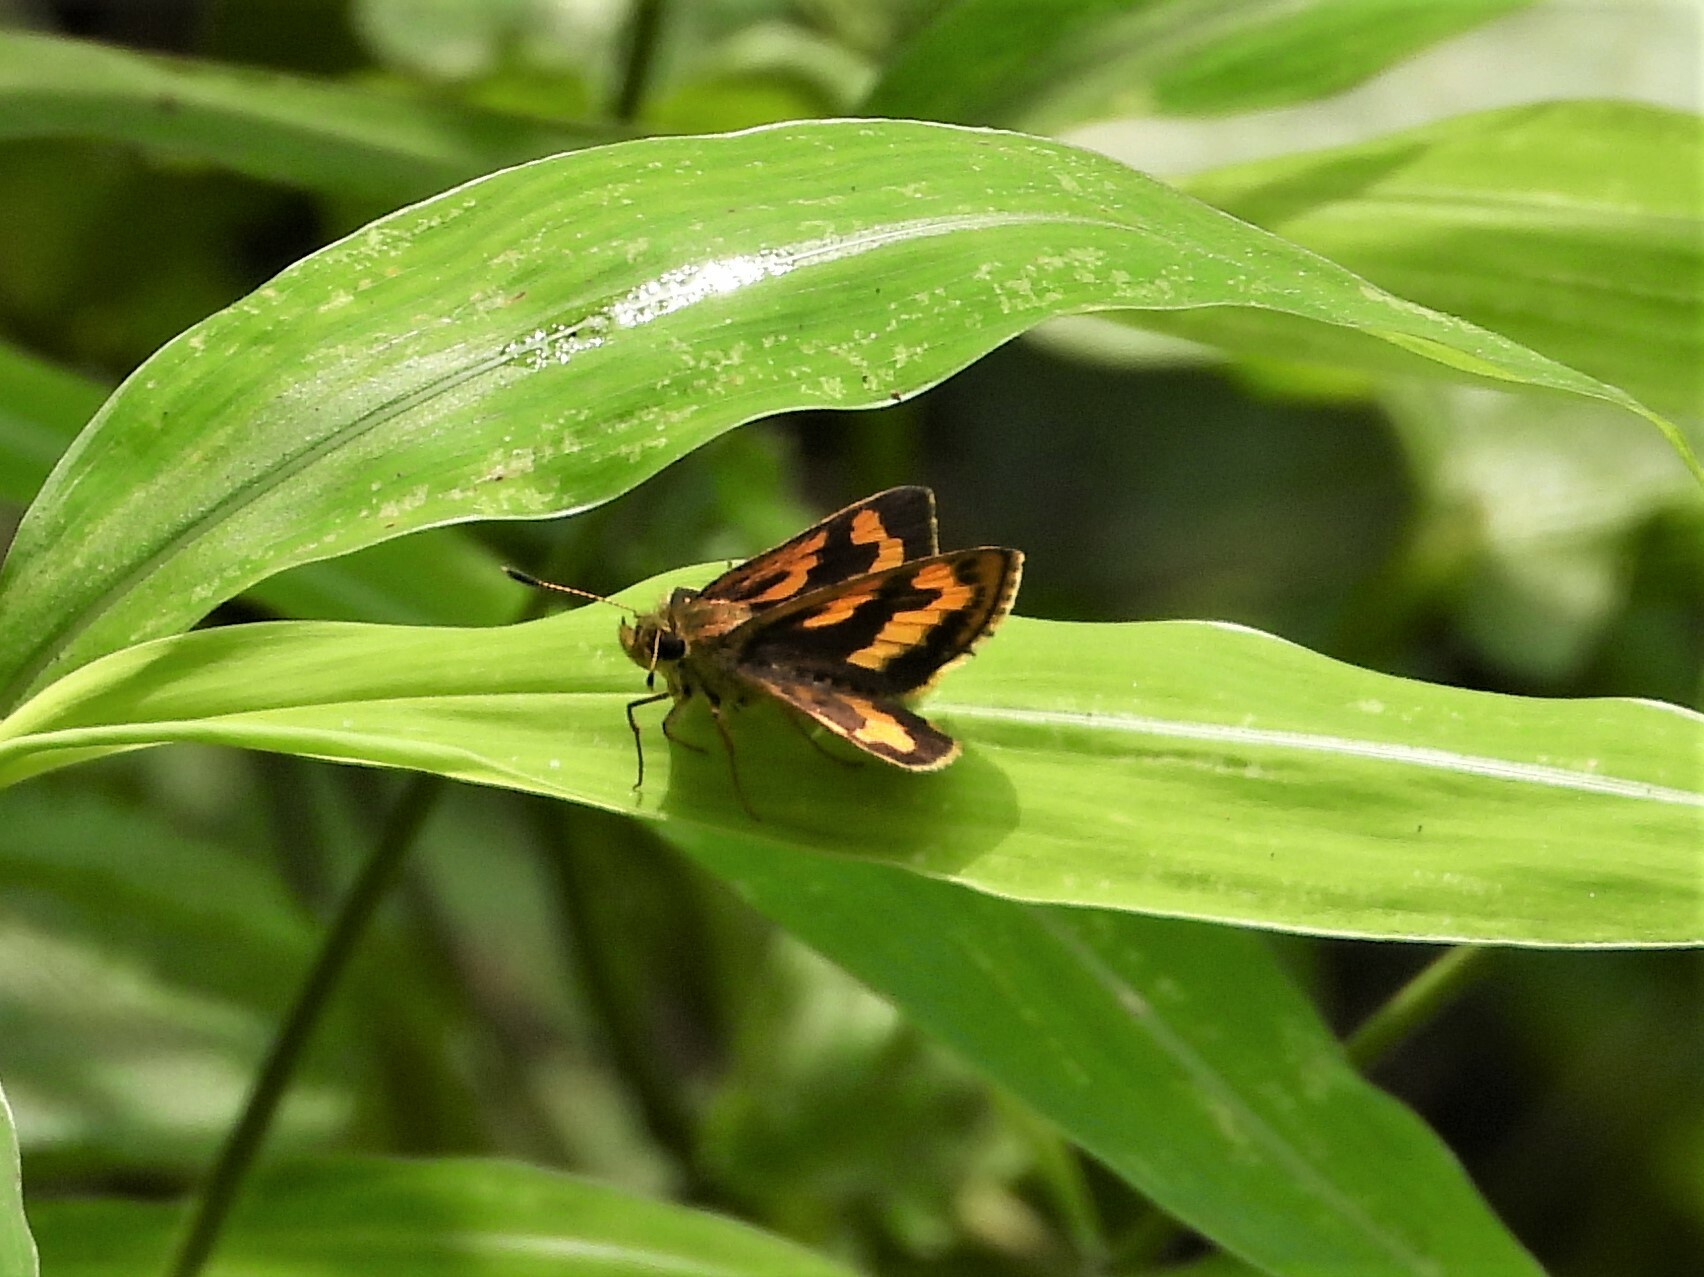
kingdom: Animalia
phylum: Arthropoda
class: Insecta
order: Lepidoptera
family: Hesperiidae
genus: Potanthus
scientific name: Potanthus confucius
